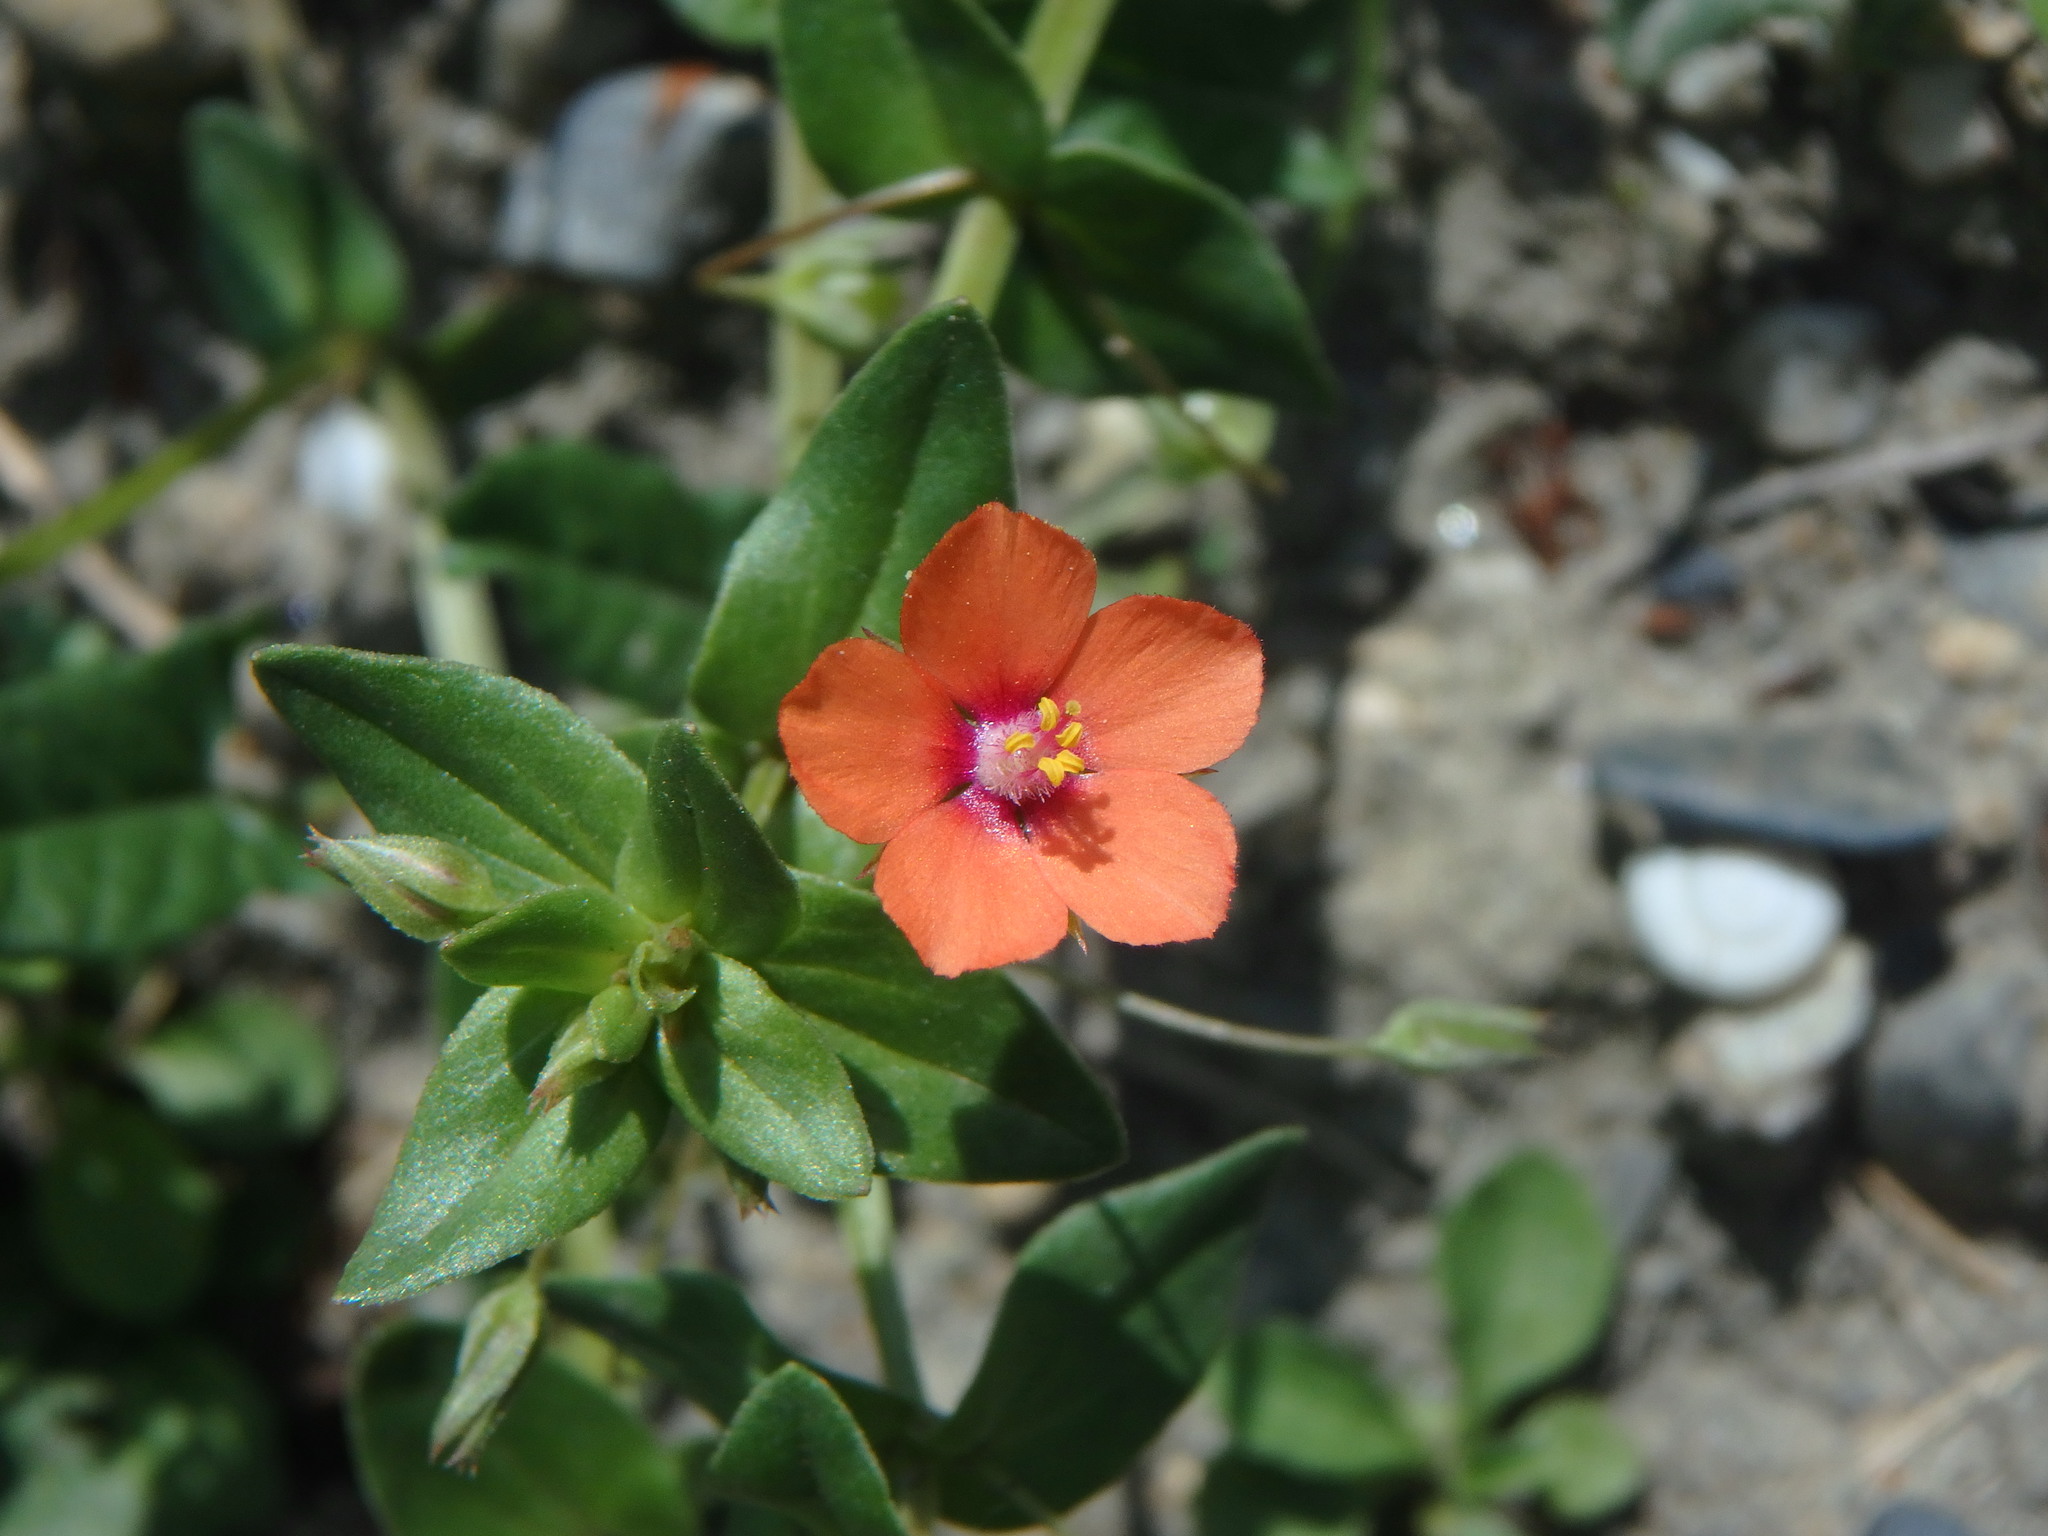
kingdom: Plantae
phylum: Tracheophyta
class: Magnoliopsida
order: Ericales
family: Primulaceae
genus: Lysimachia
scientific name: Lysimachia arvensis
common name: Scarlet pimpernel
